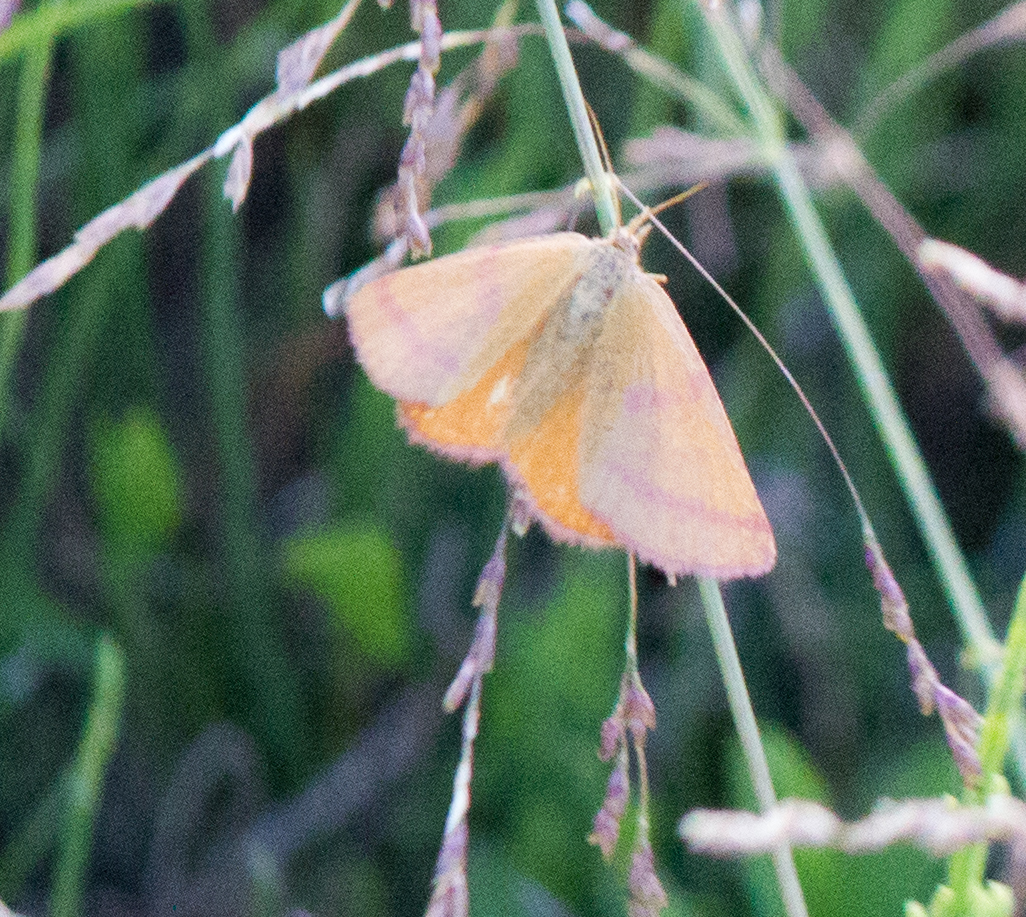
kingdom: Animalia
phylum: Arthropoda
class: Insecta
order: Lepidoptera
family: Geometridae
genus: Lythria
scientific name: Lythria purpuraria
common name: Purple-barred yellow
